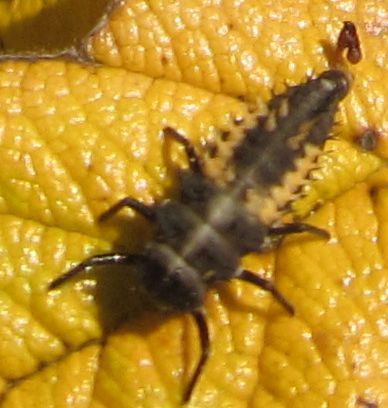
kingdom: Animalia
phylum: Arthropoda
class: Insecta
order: Coleoptera
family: Coccinellidae
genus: Harmonia
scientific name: Harmonia axyridis
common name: Harlequin ladybird
